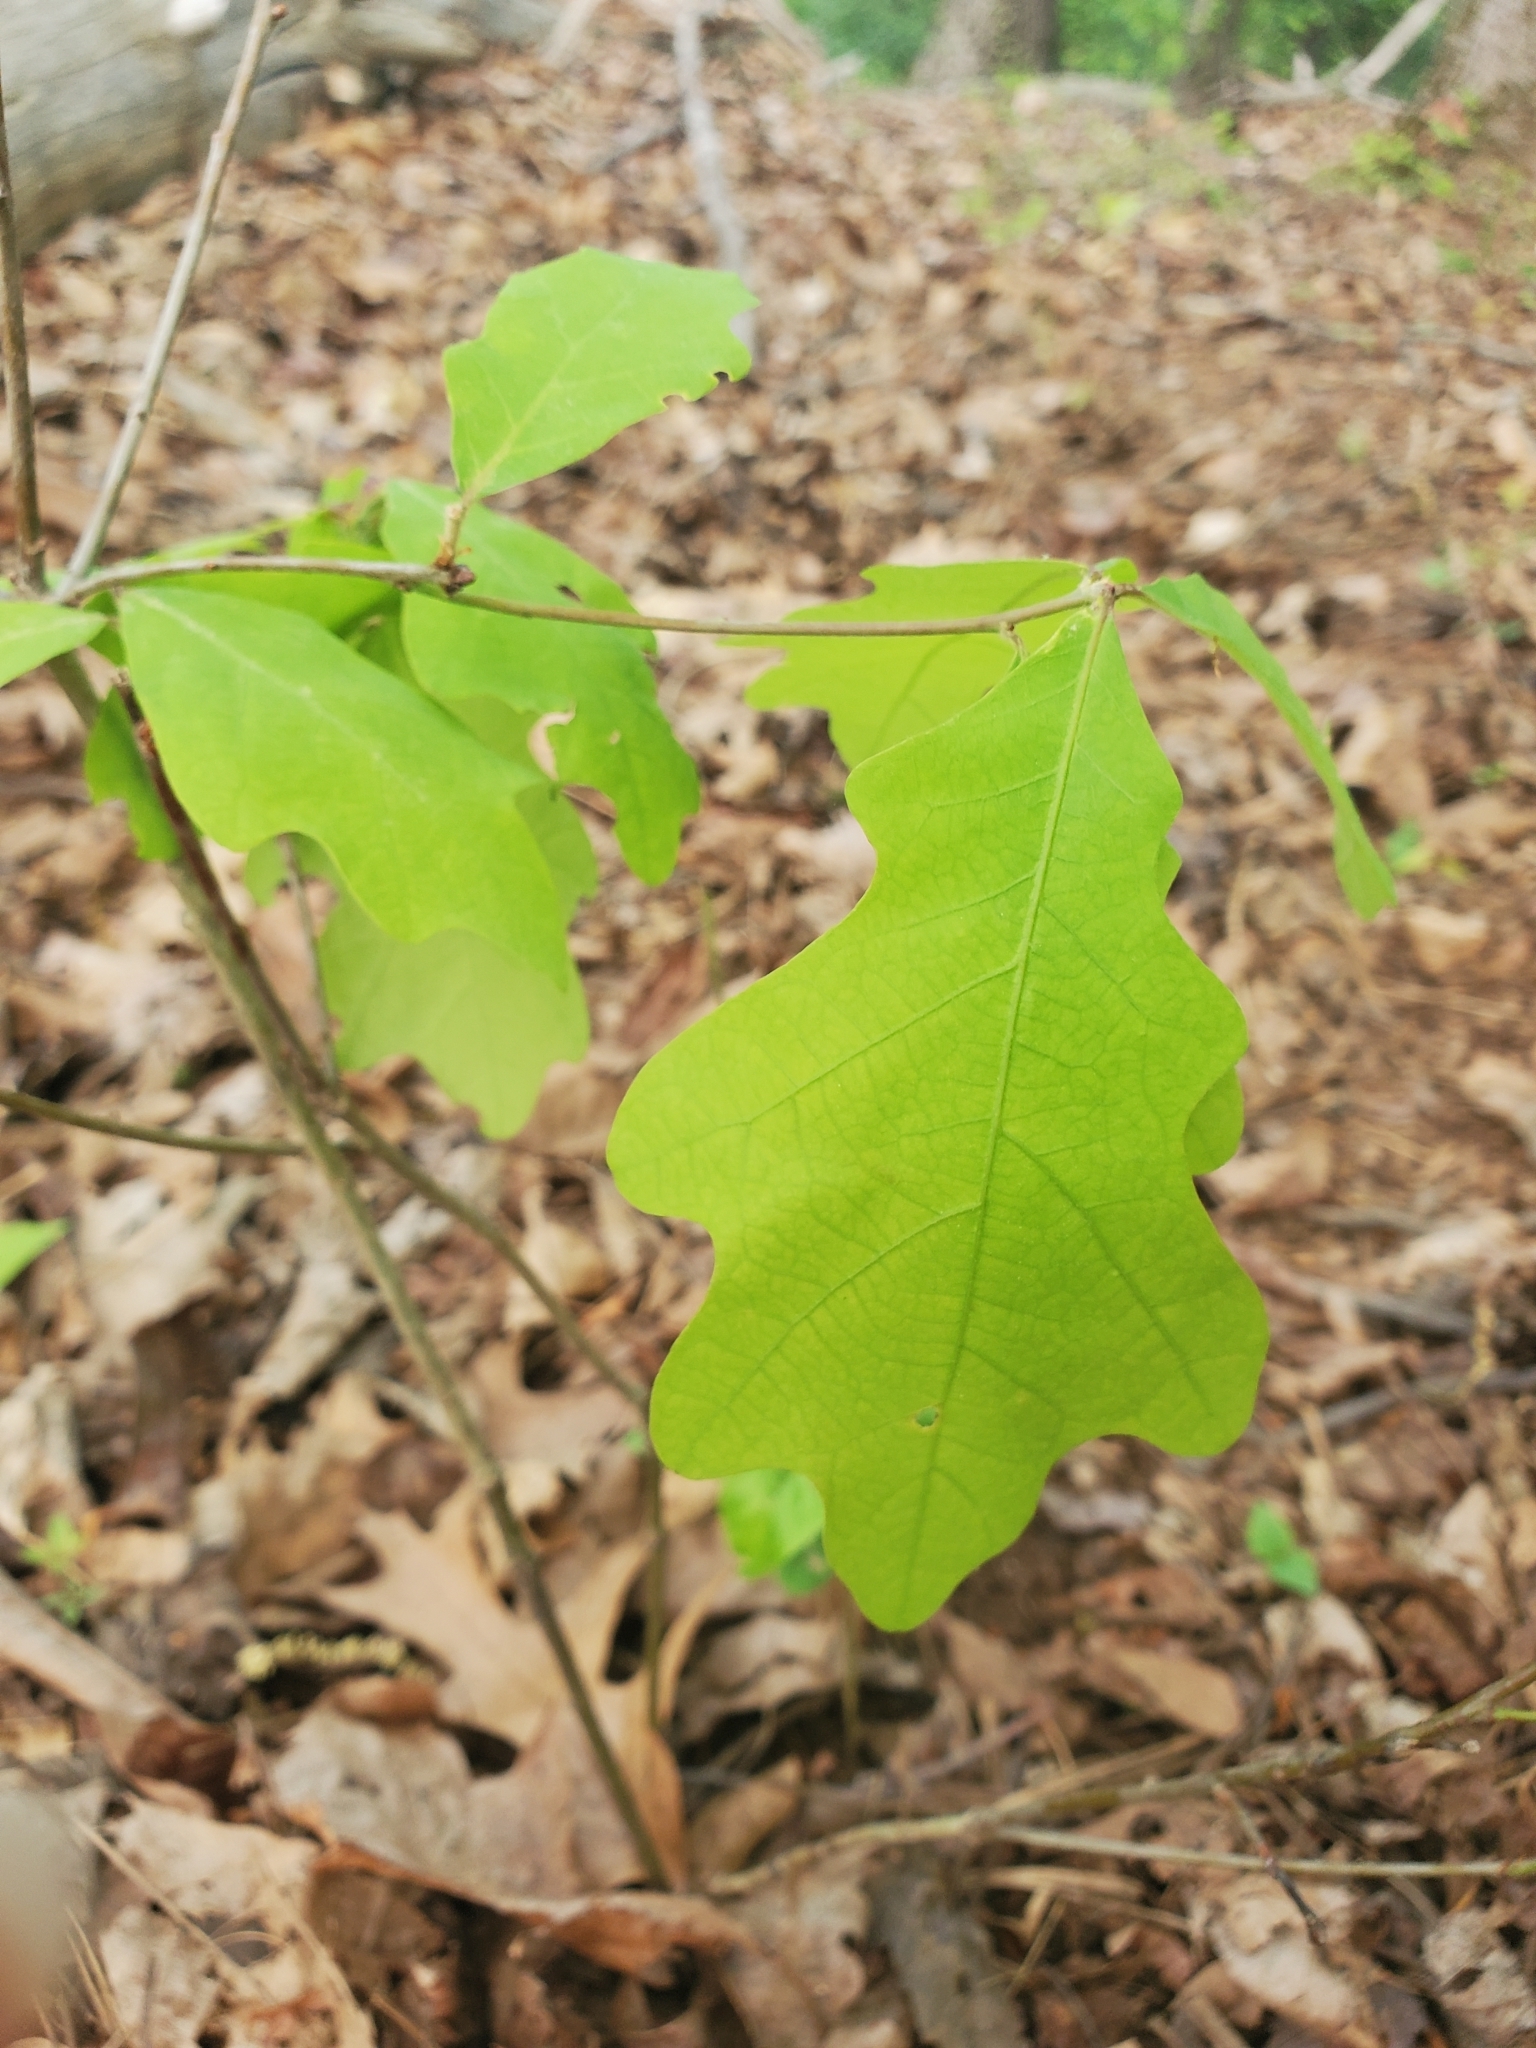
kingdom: Plantae
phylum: Tracheophyta
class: Magnoliopsida
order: Fagales
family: Fagaceae
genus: Quercus
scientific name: Quercus alba
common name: White oak
